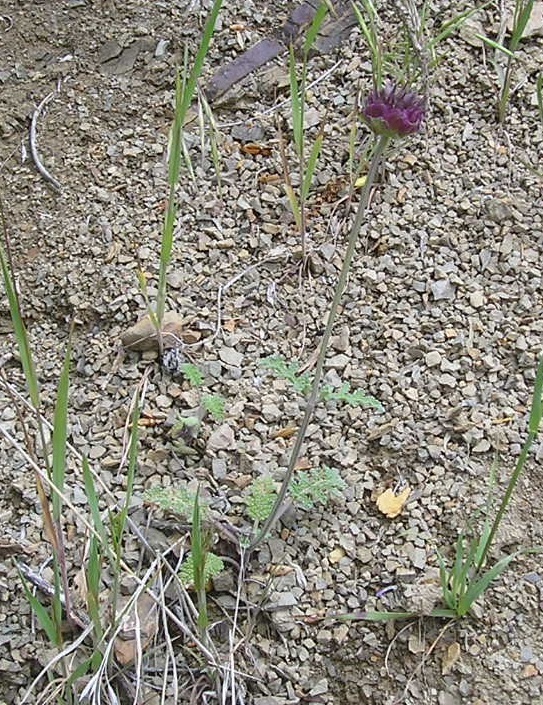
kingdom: Plantae
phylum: Tracheophyta
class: Magnoliopsida
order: Lamiales
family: Lamiaceae
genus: Salvia
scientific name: Salvia columbariae
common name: Chia
